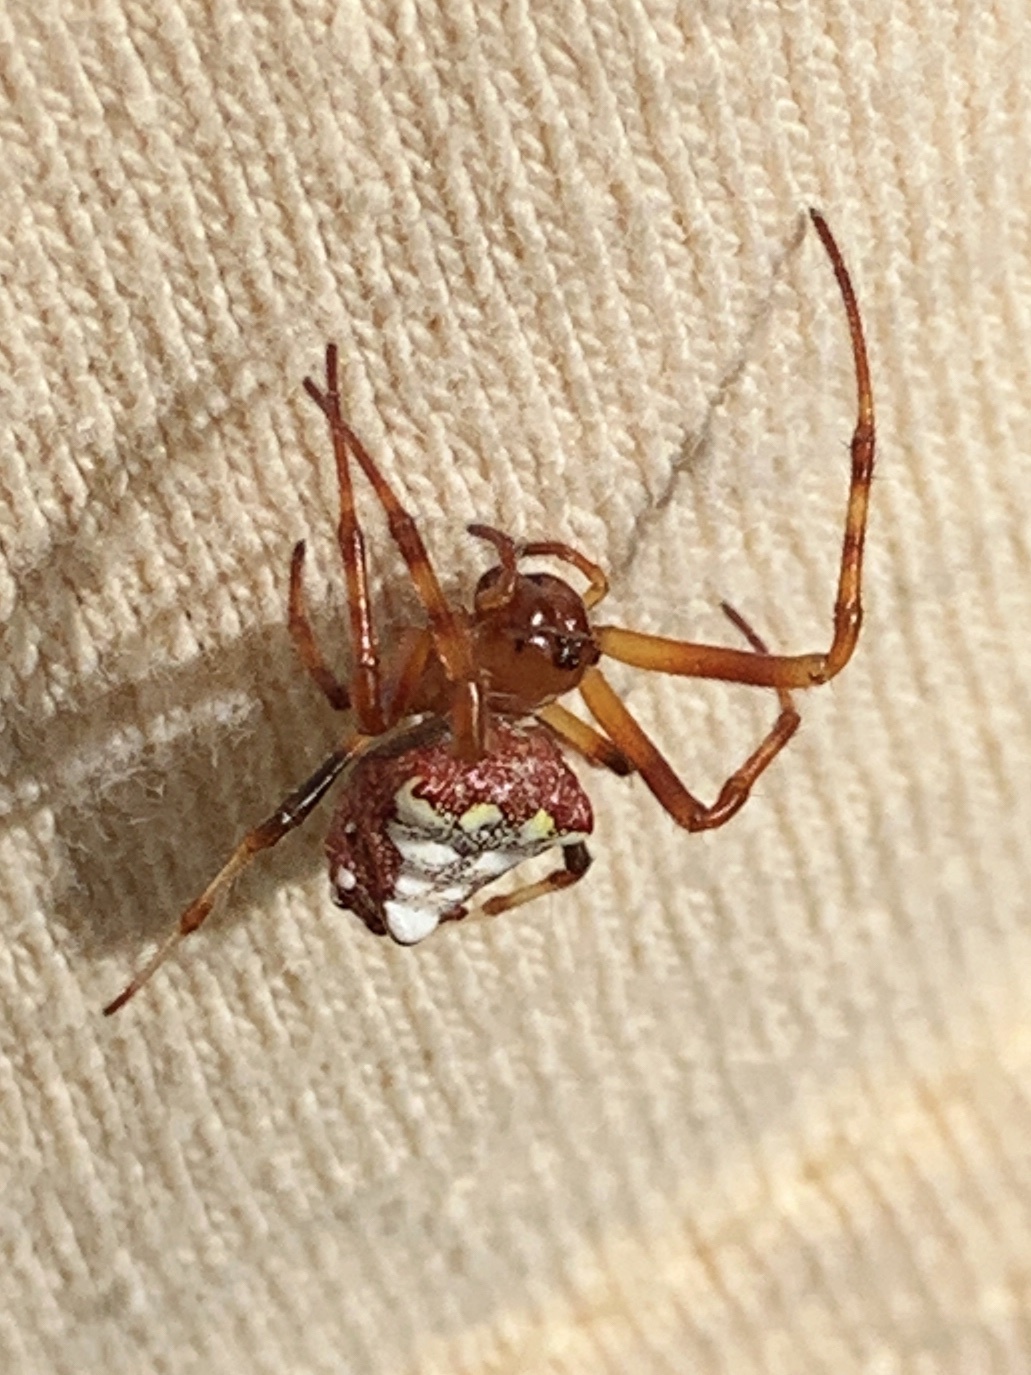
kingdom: Animalia
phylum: Arthropoda
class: Arachnida
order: Araneae
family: Araneidae
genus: Verrucosa
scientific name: Verrucosa arenata
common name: Orb weavers
